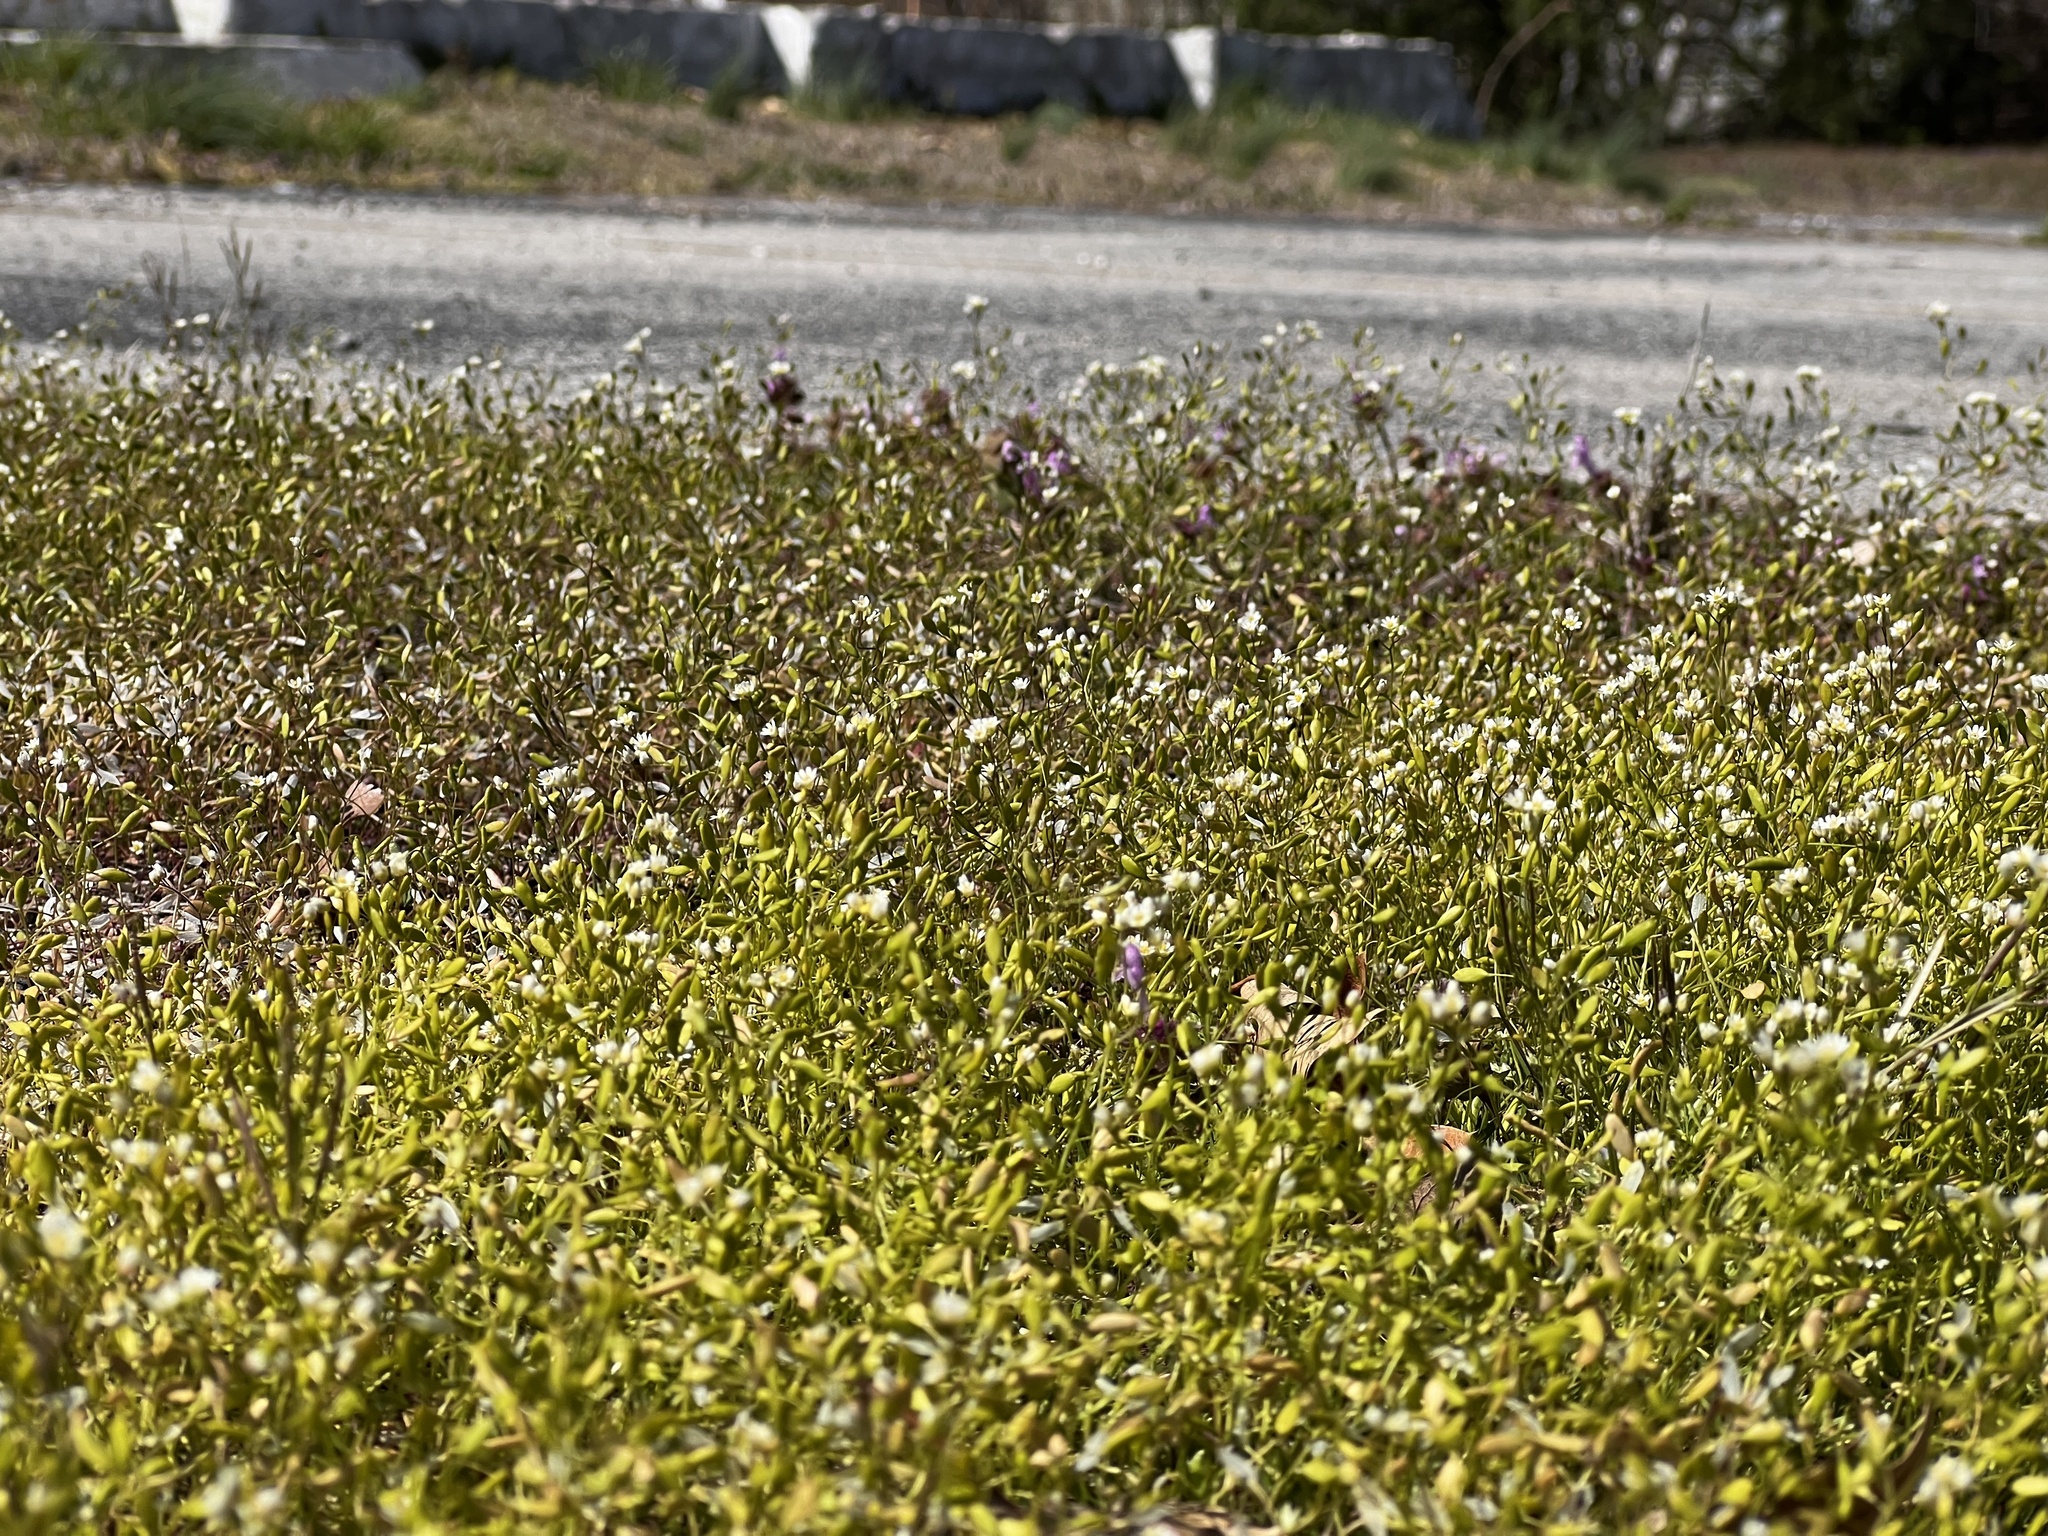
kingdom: Plantae
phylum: Tracheophyta
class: Magnoliopsida
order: Brassicales
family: Brassicaceae
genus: Draba
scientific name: Draba verna
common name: Spring draba
